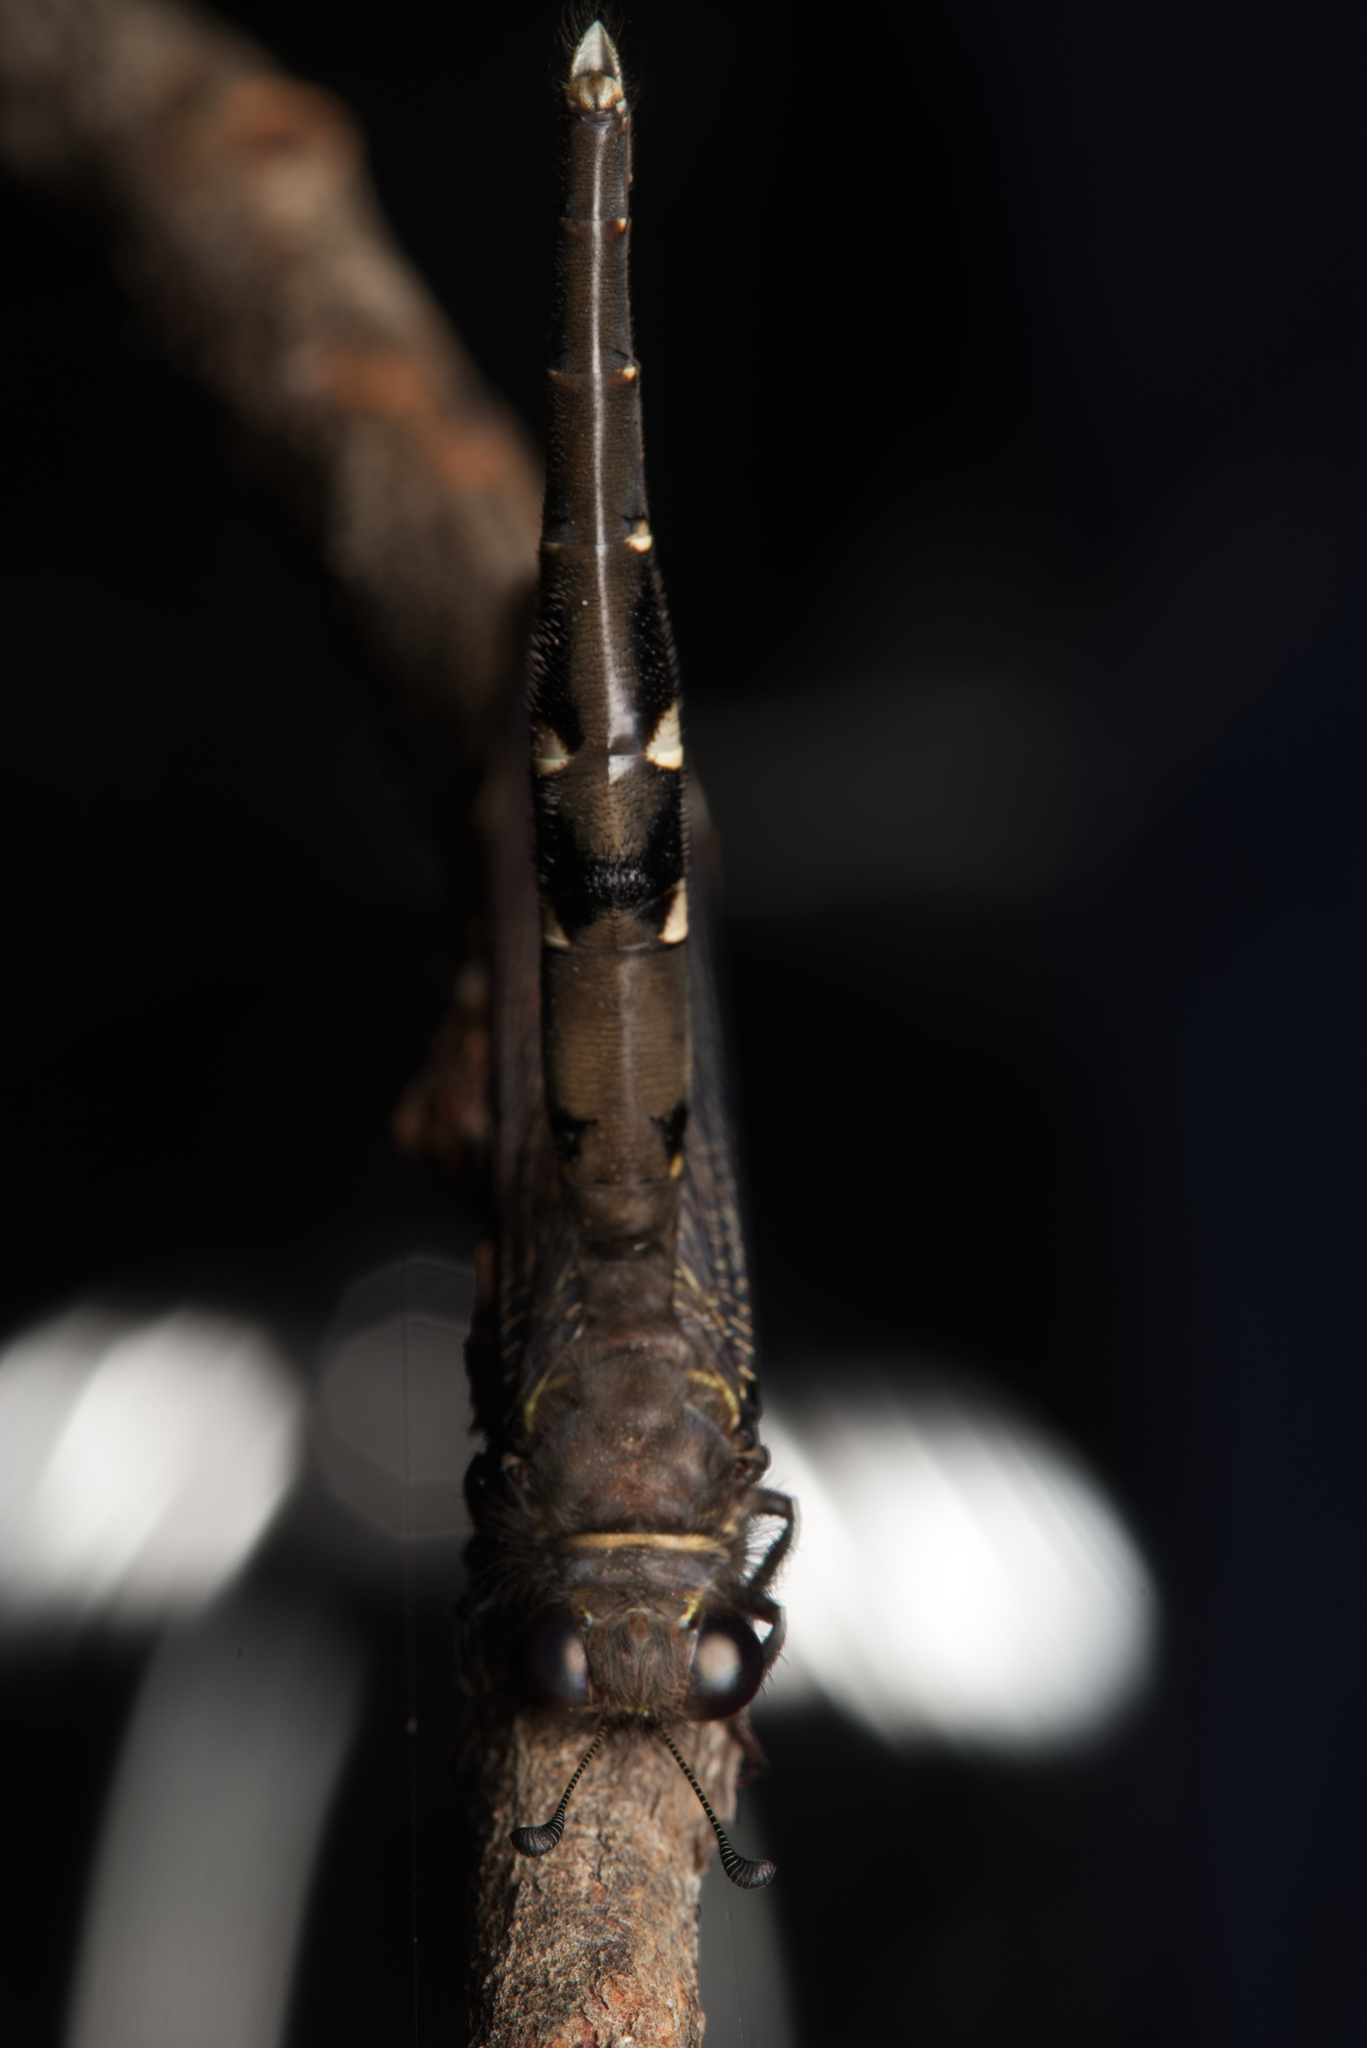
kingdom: Animalia
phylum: Arthropoda
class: Insecta
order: Neuroptera
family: Myrmeleontidae
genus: Stilbopteryx
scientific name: Stilbopteryx walkeri
